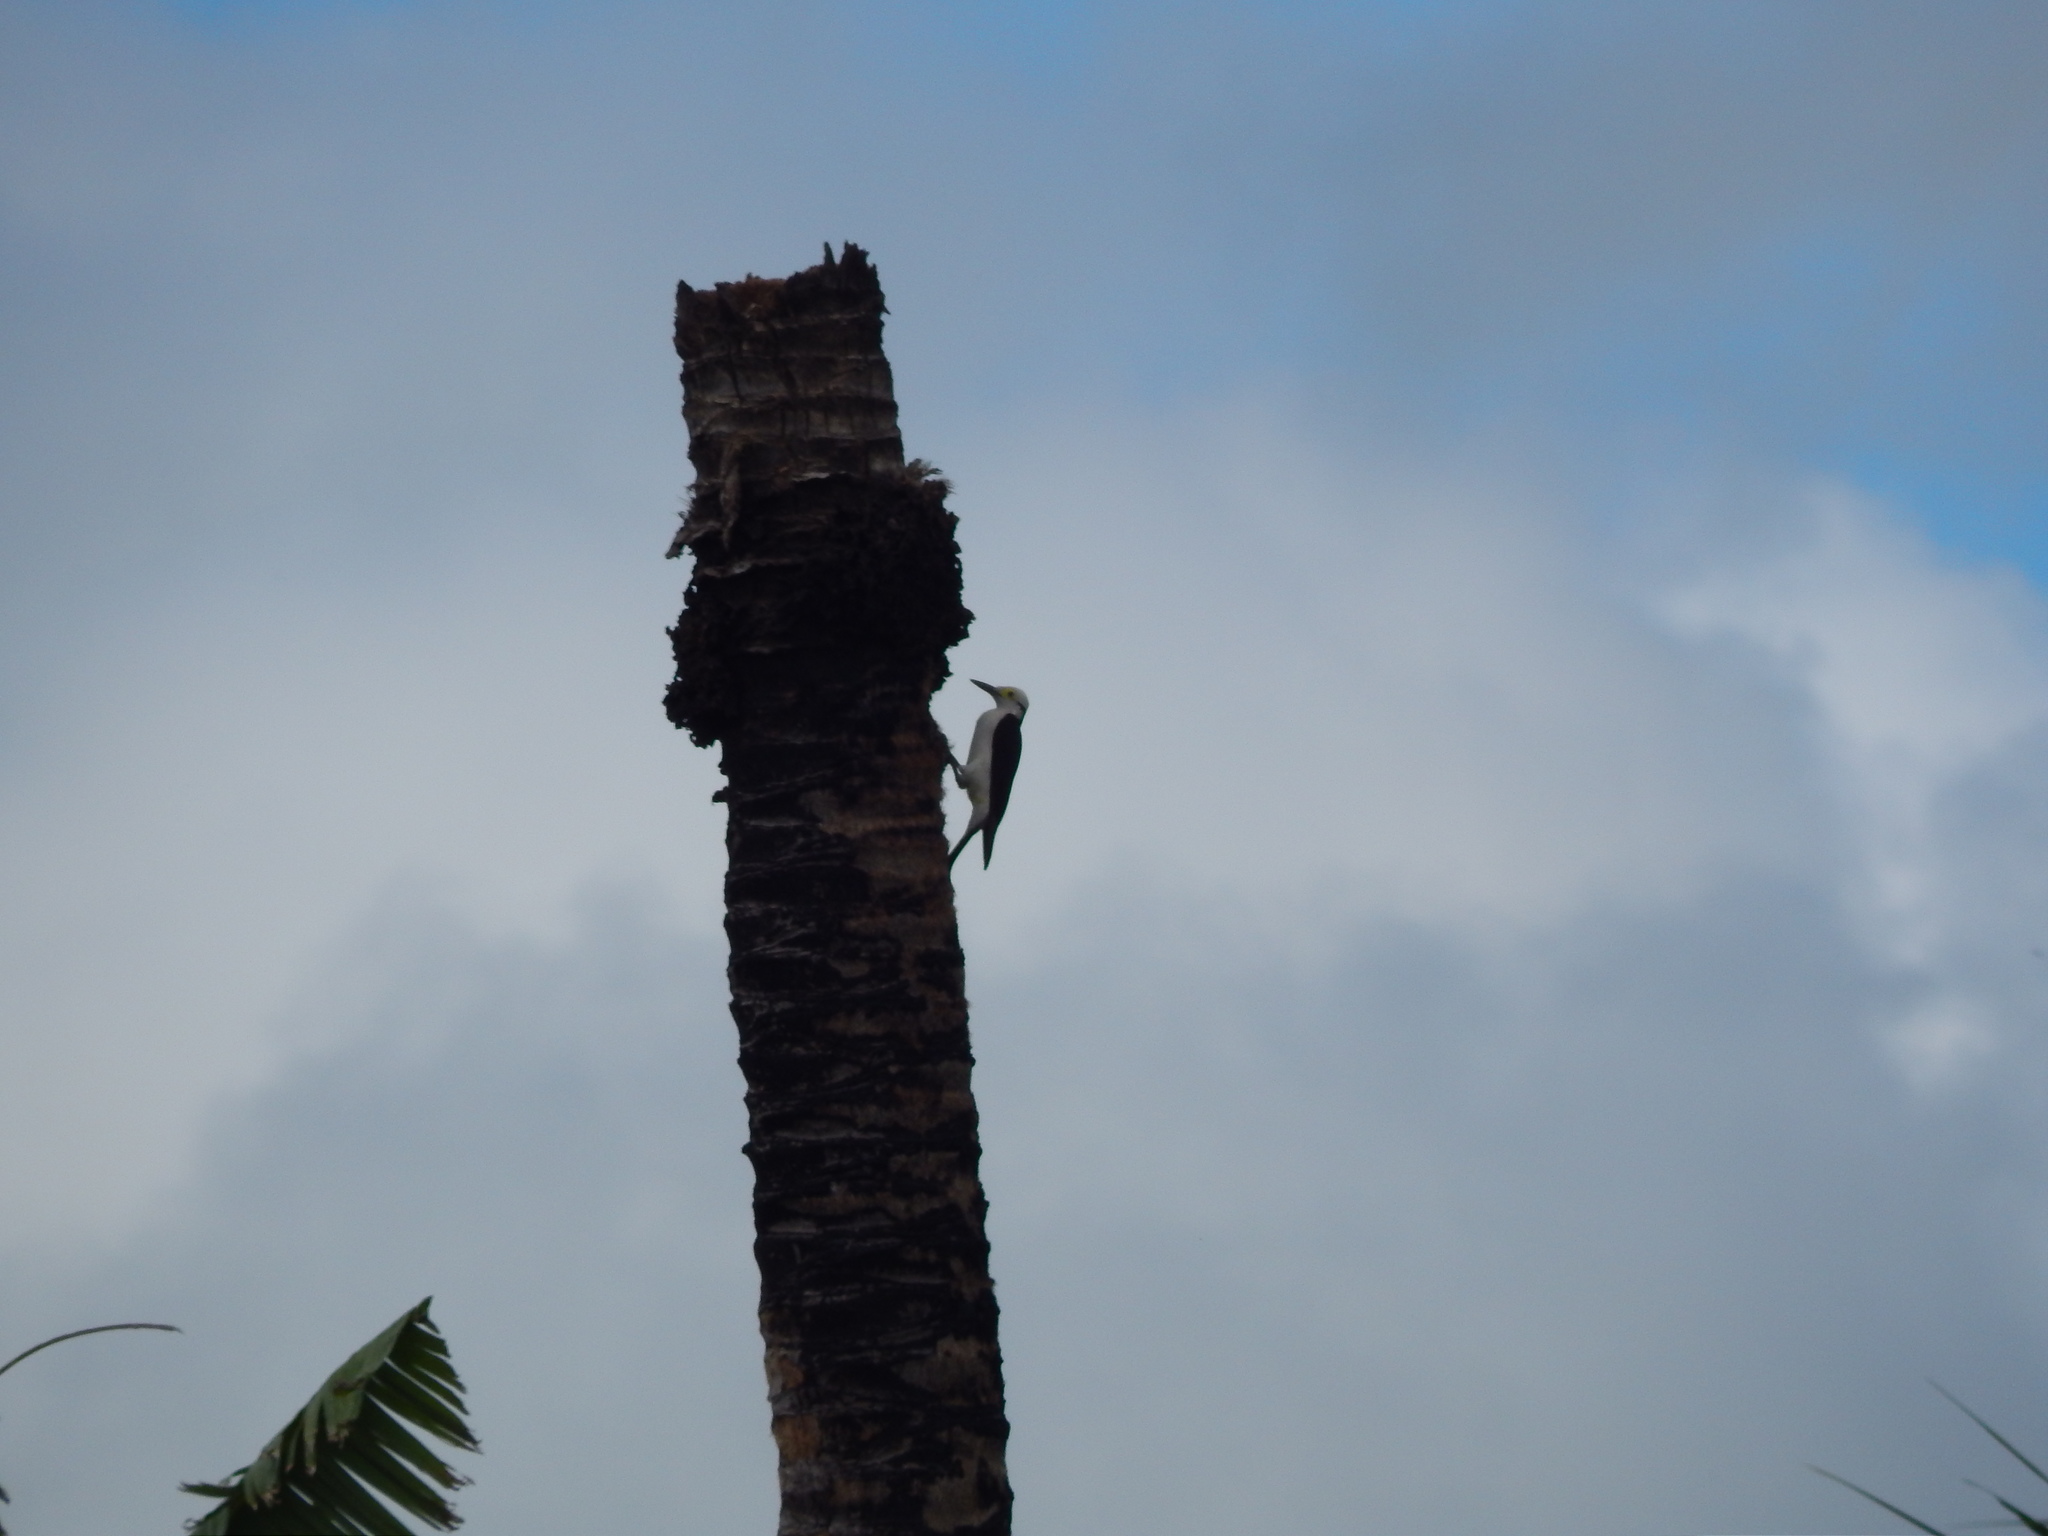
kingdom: Animalia
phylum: Chordata
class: Aves
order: Piciformes
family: Picidae
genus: Melanerpes
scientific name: Melanerpes candidus
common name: White woodpecker
